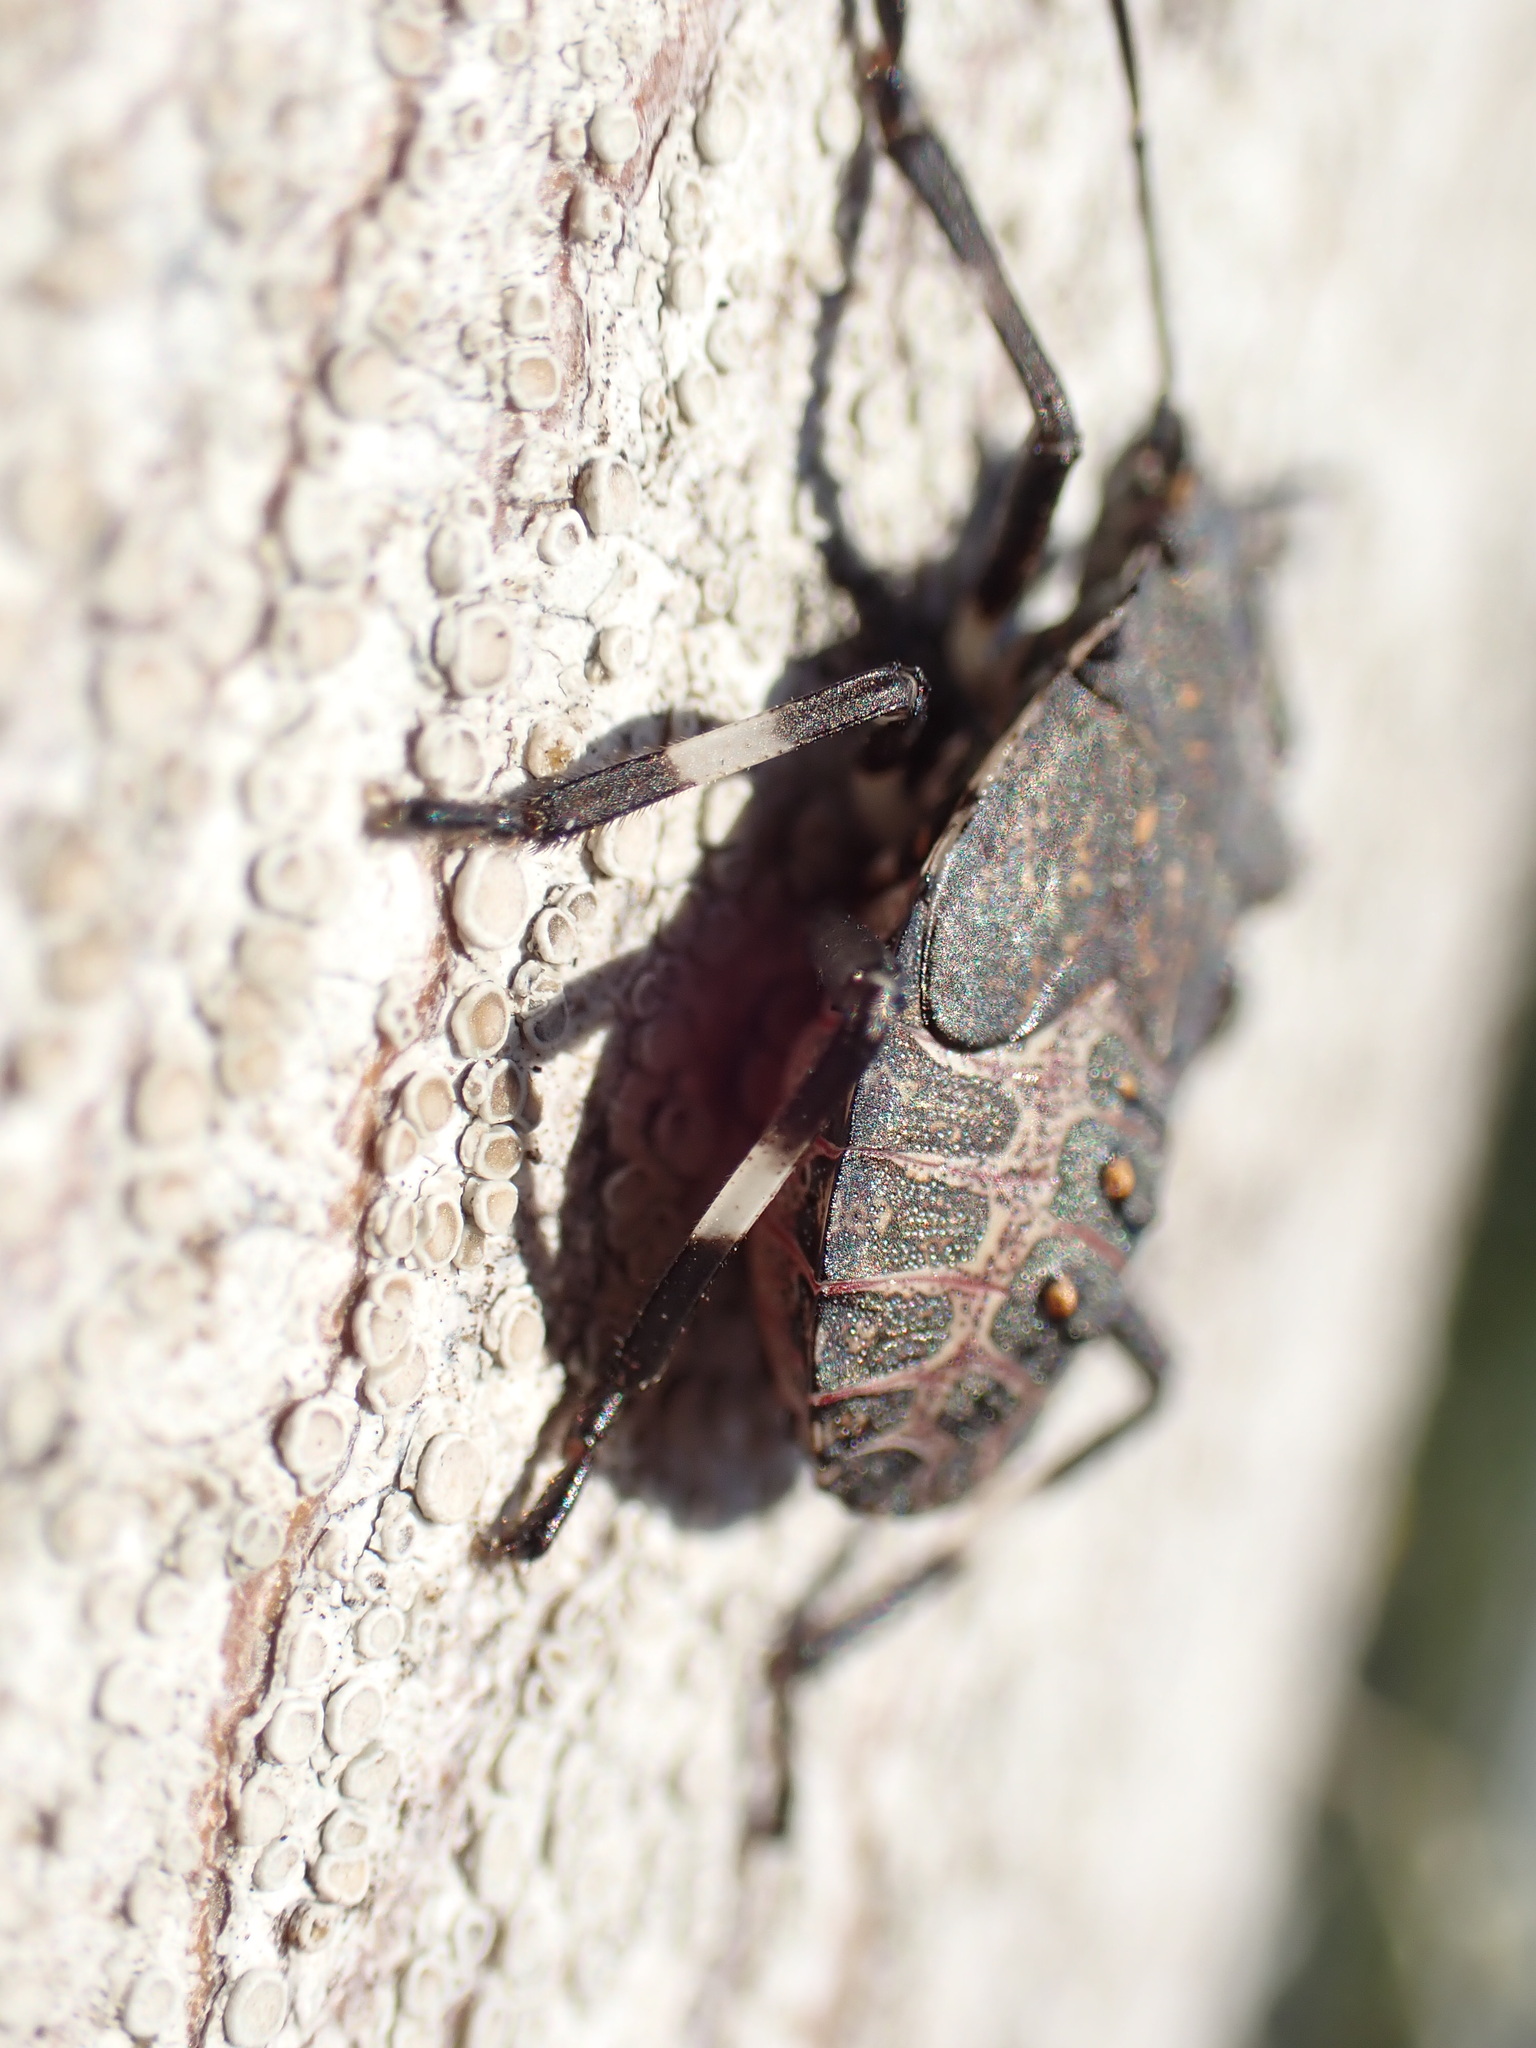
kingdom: Animalia
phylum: Arthropoda
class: Insecta
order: Hemiptera
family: Pentatomidae
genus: Halyomorpha
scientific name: Halyomorpha halys
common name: Brown marmorated stink bug
